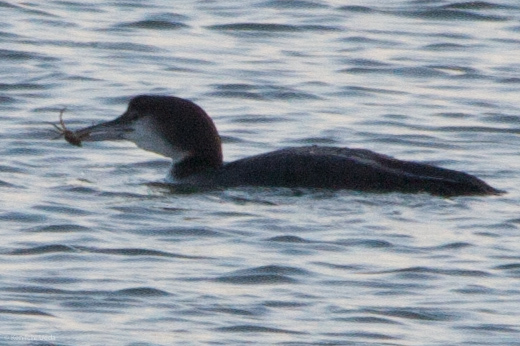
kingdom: Animalia
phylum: Chordata
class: Aves
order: Gaviiformes
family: Gaviidae
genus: Gavia
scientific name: Gavia immer
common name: Common loon
